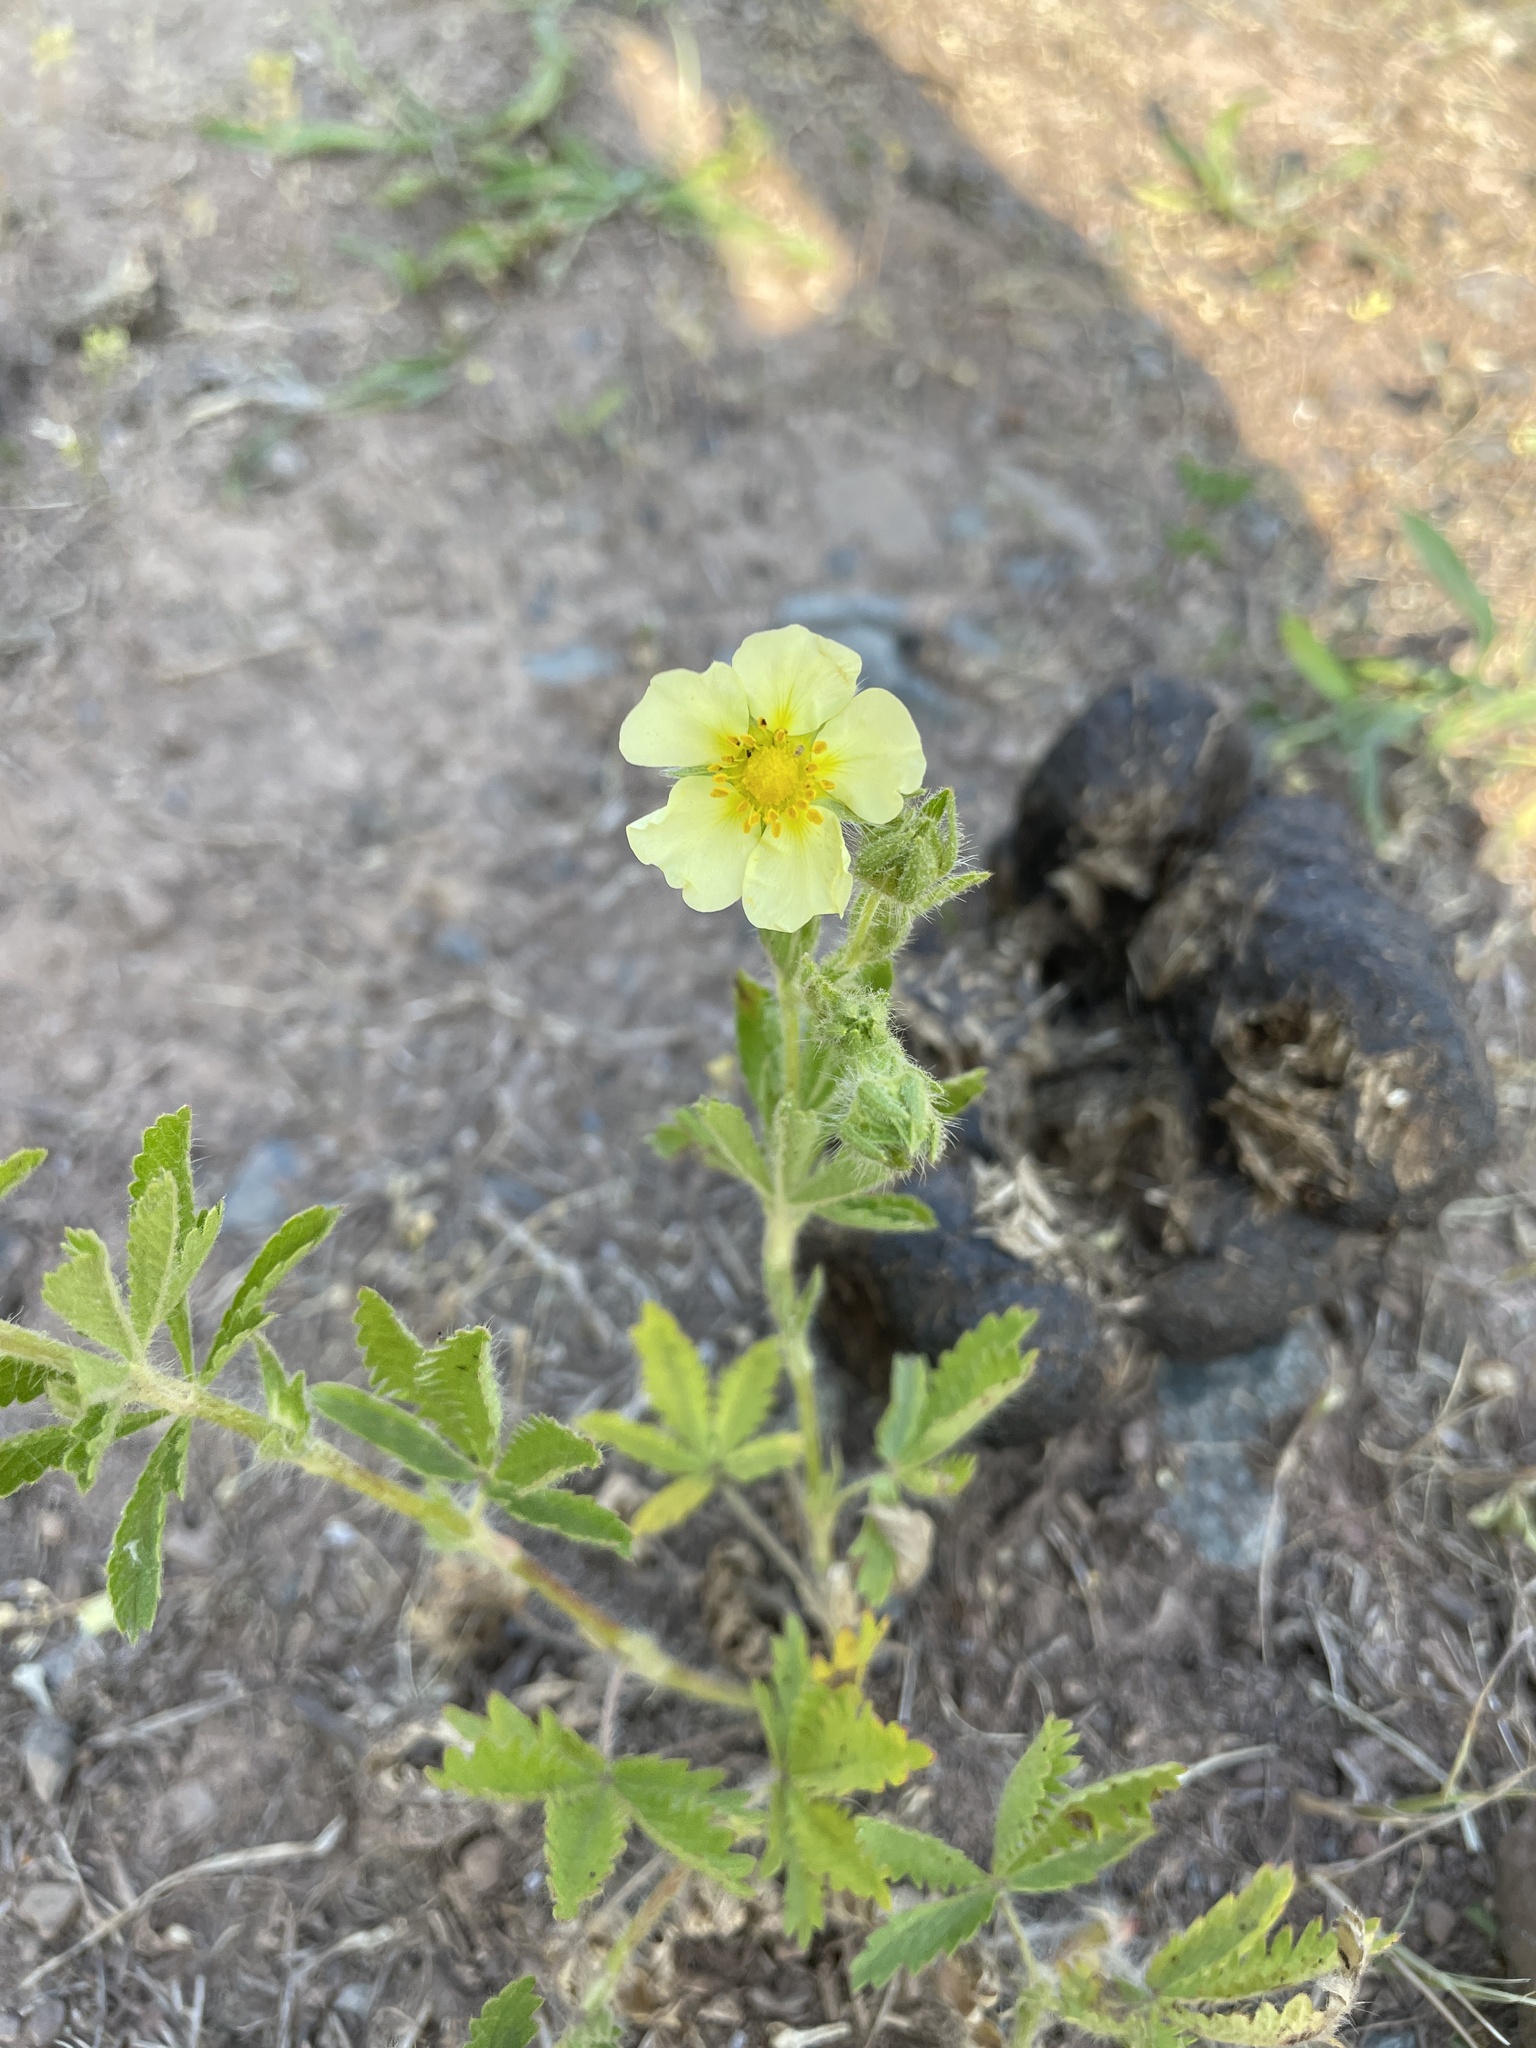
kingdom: Plantae
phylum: Tracheophyta
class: Magnoliopsida
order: Rosales
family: Rosaceae
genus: Potentilla
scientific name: Potentilla recta
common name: Sulphur cinquefoil
